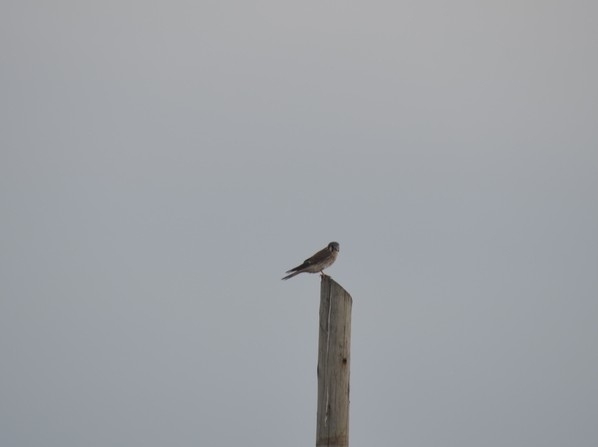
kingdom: Animalia
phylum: Chordata
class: Aves
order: Falconiformes
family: Falconidae
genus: Falco
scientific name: Falco sparverius
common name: American kestrel
